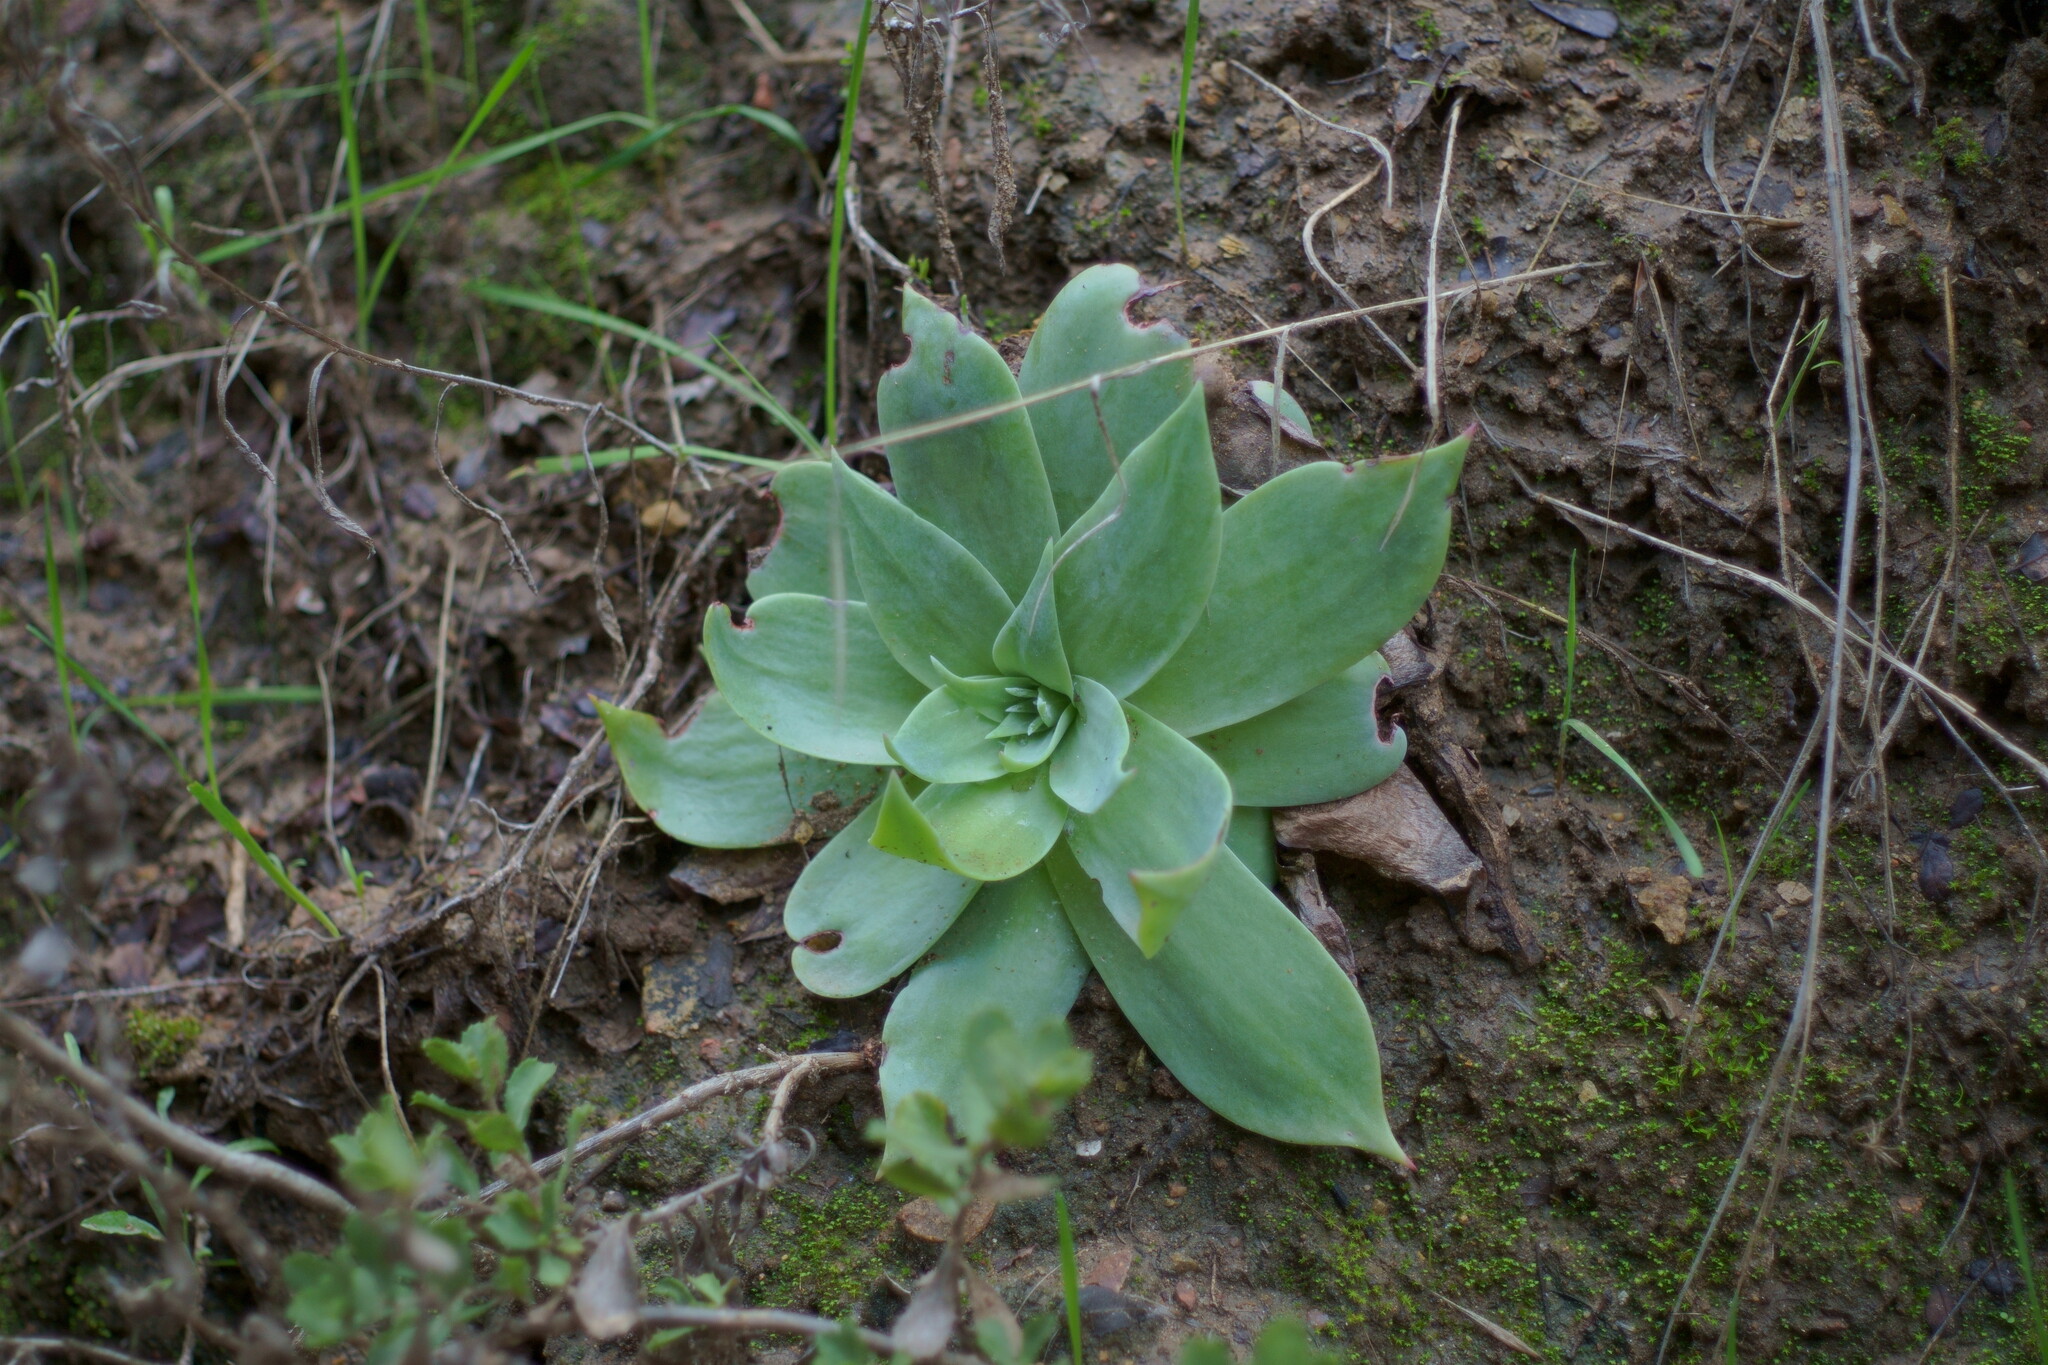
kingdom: Plantae
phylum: Tracheophyta
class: Magnoliopsida
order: Saxifragales
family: Crassulaceae
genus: Dudleya
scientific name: Dudleya pulverulenta
